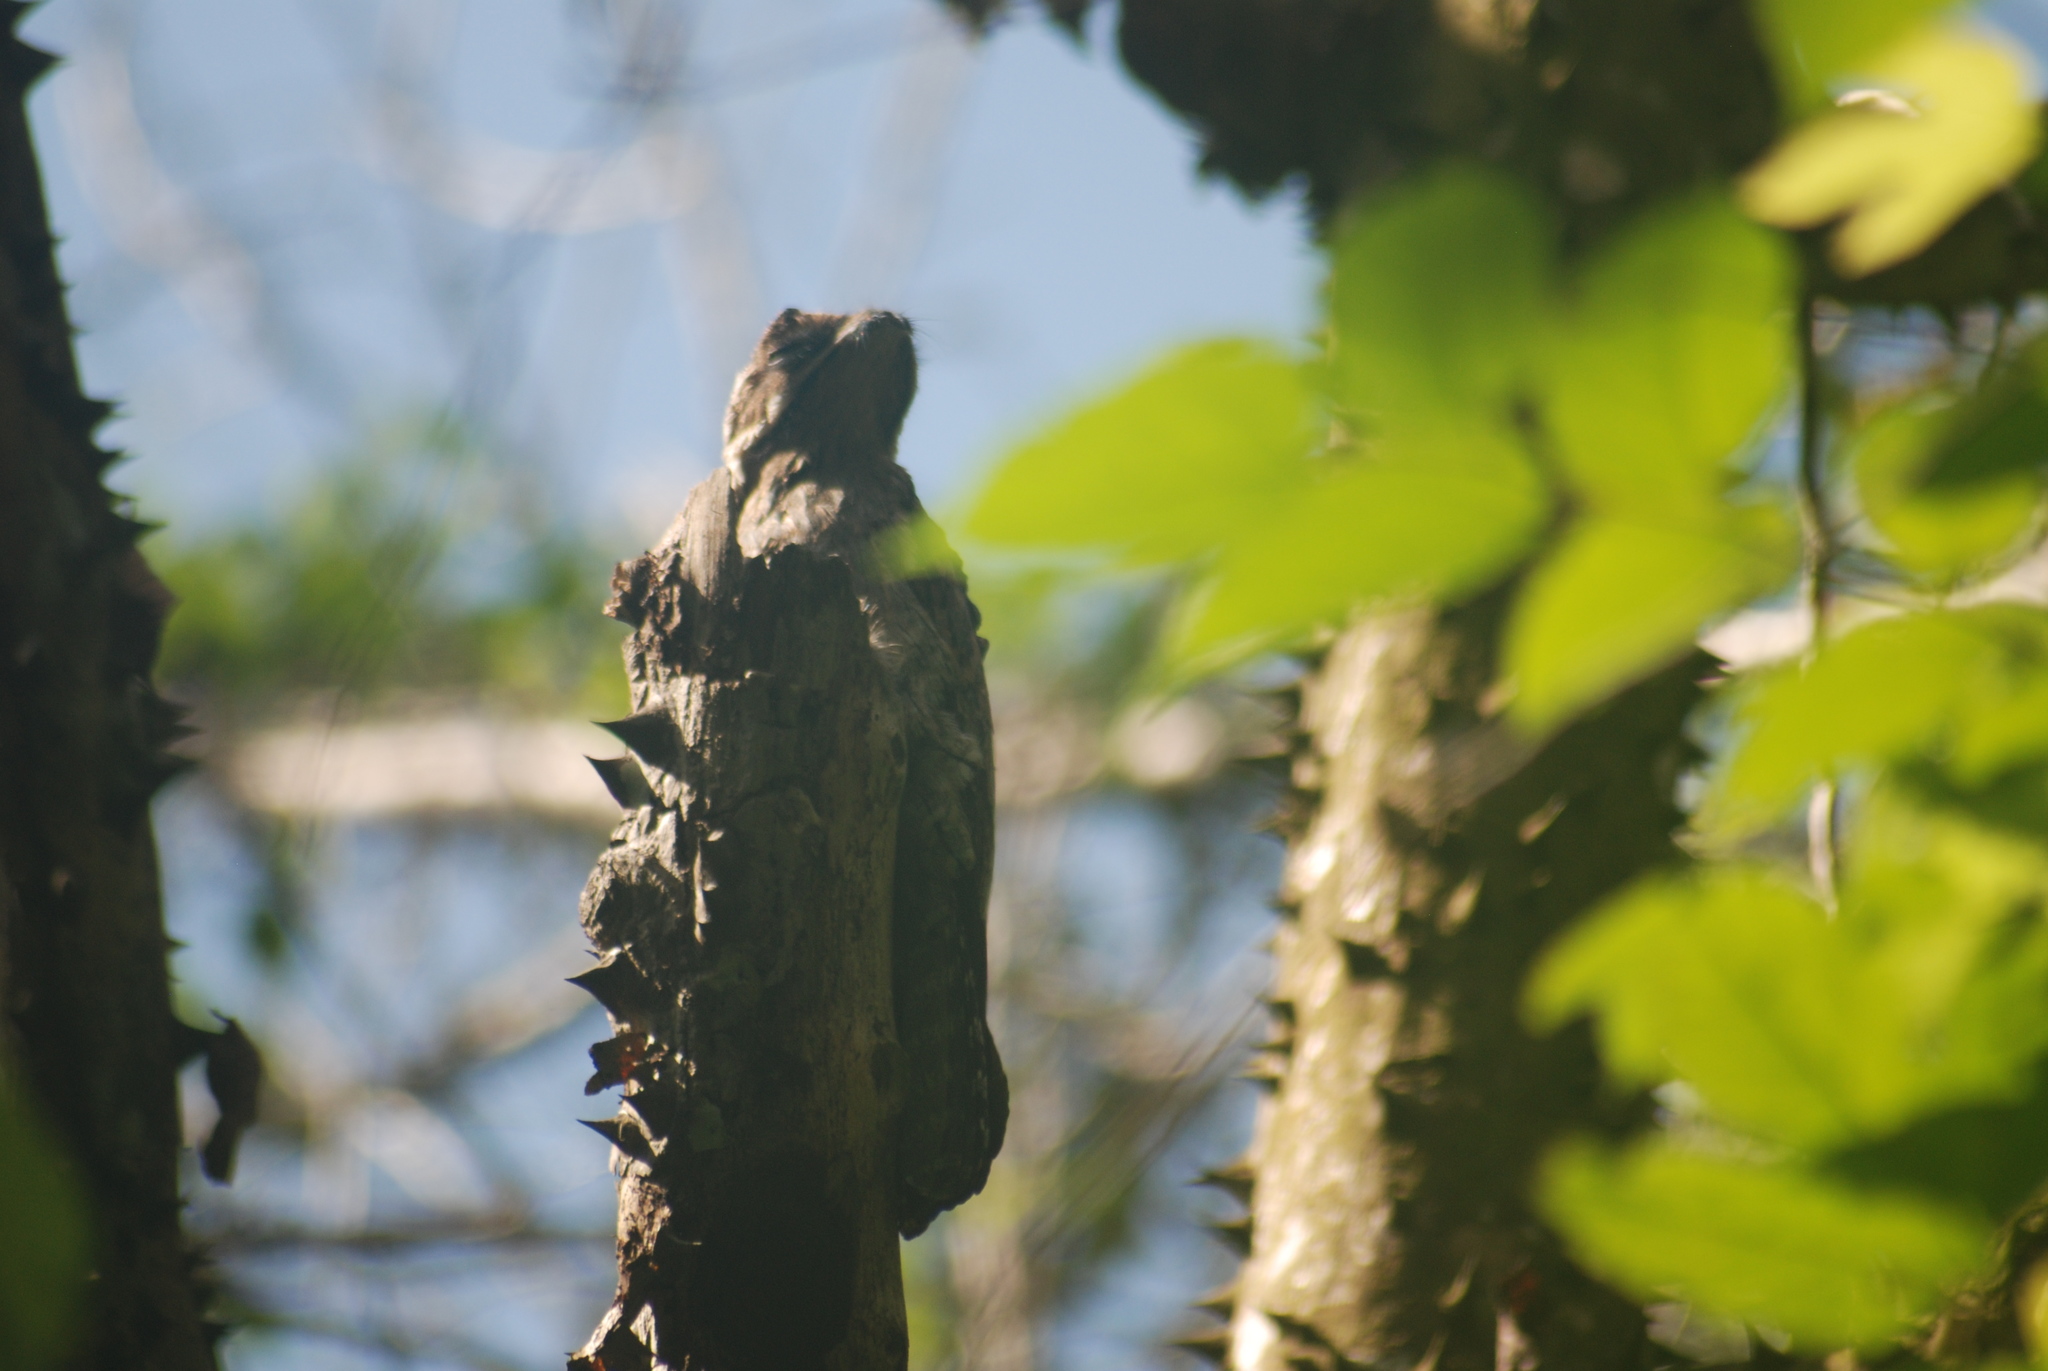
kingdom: Animalia
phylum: Chordata
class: Aves
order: Nyctibiiformes
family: Nyctibiidae
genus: Nyctibius
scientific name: Nyctibius griseus
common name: Common potoo
